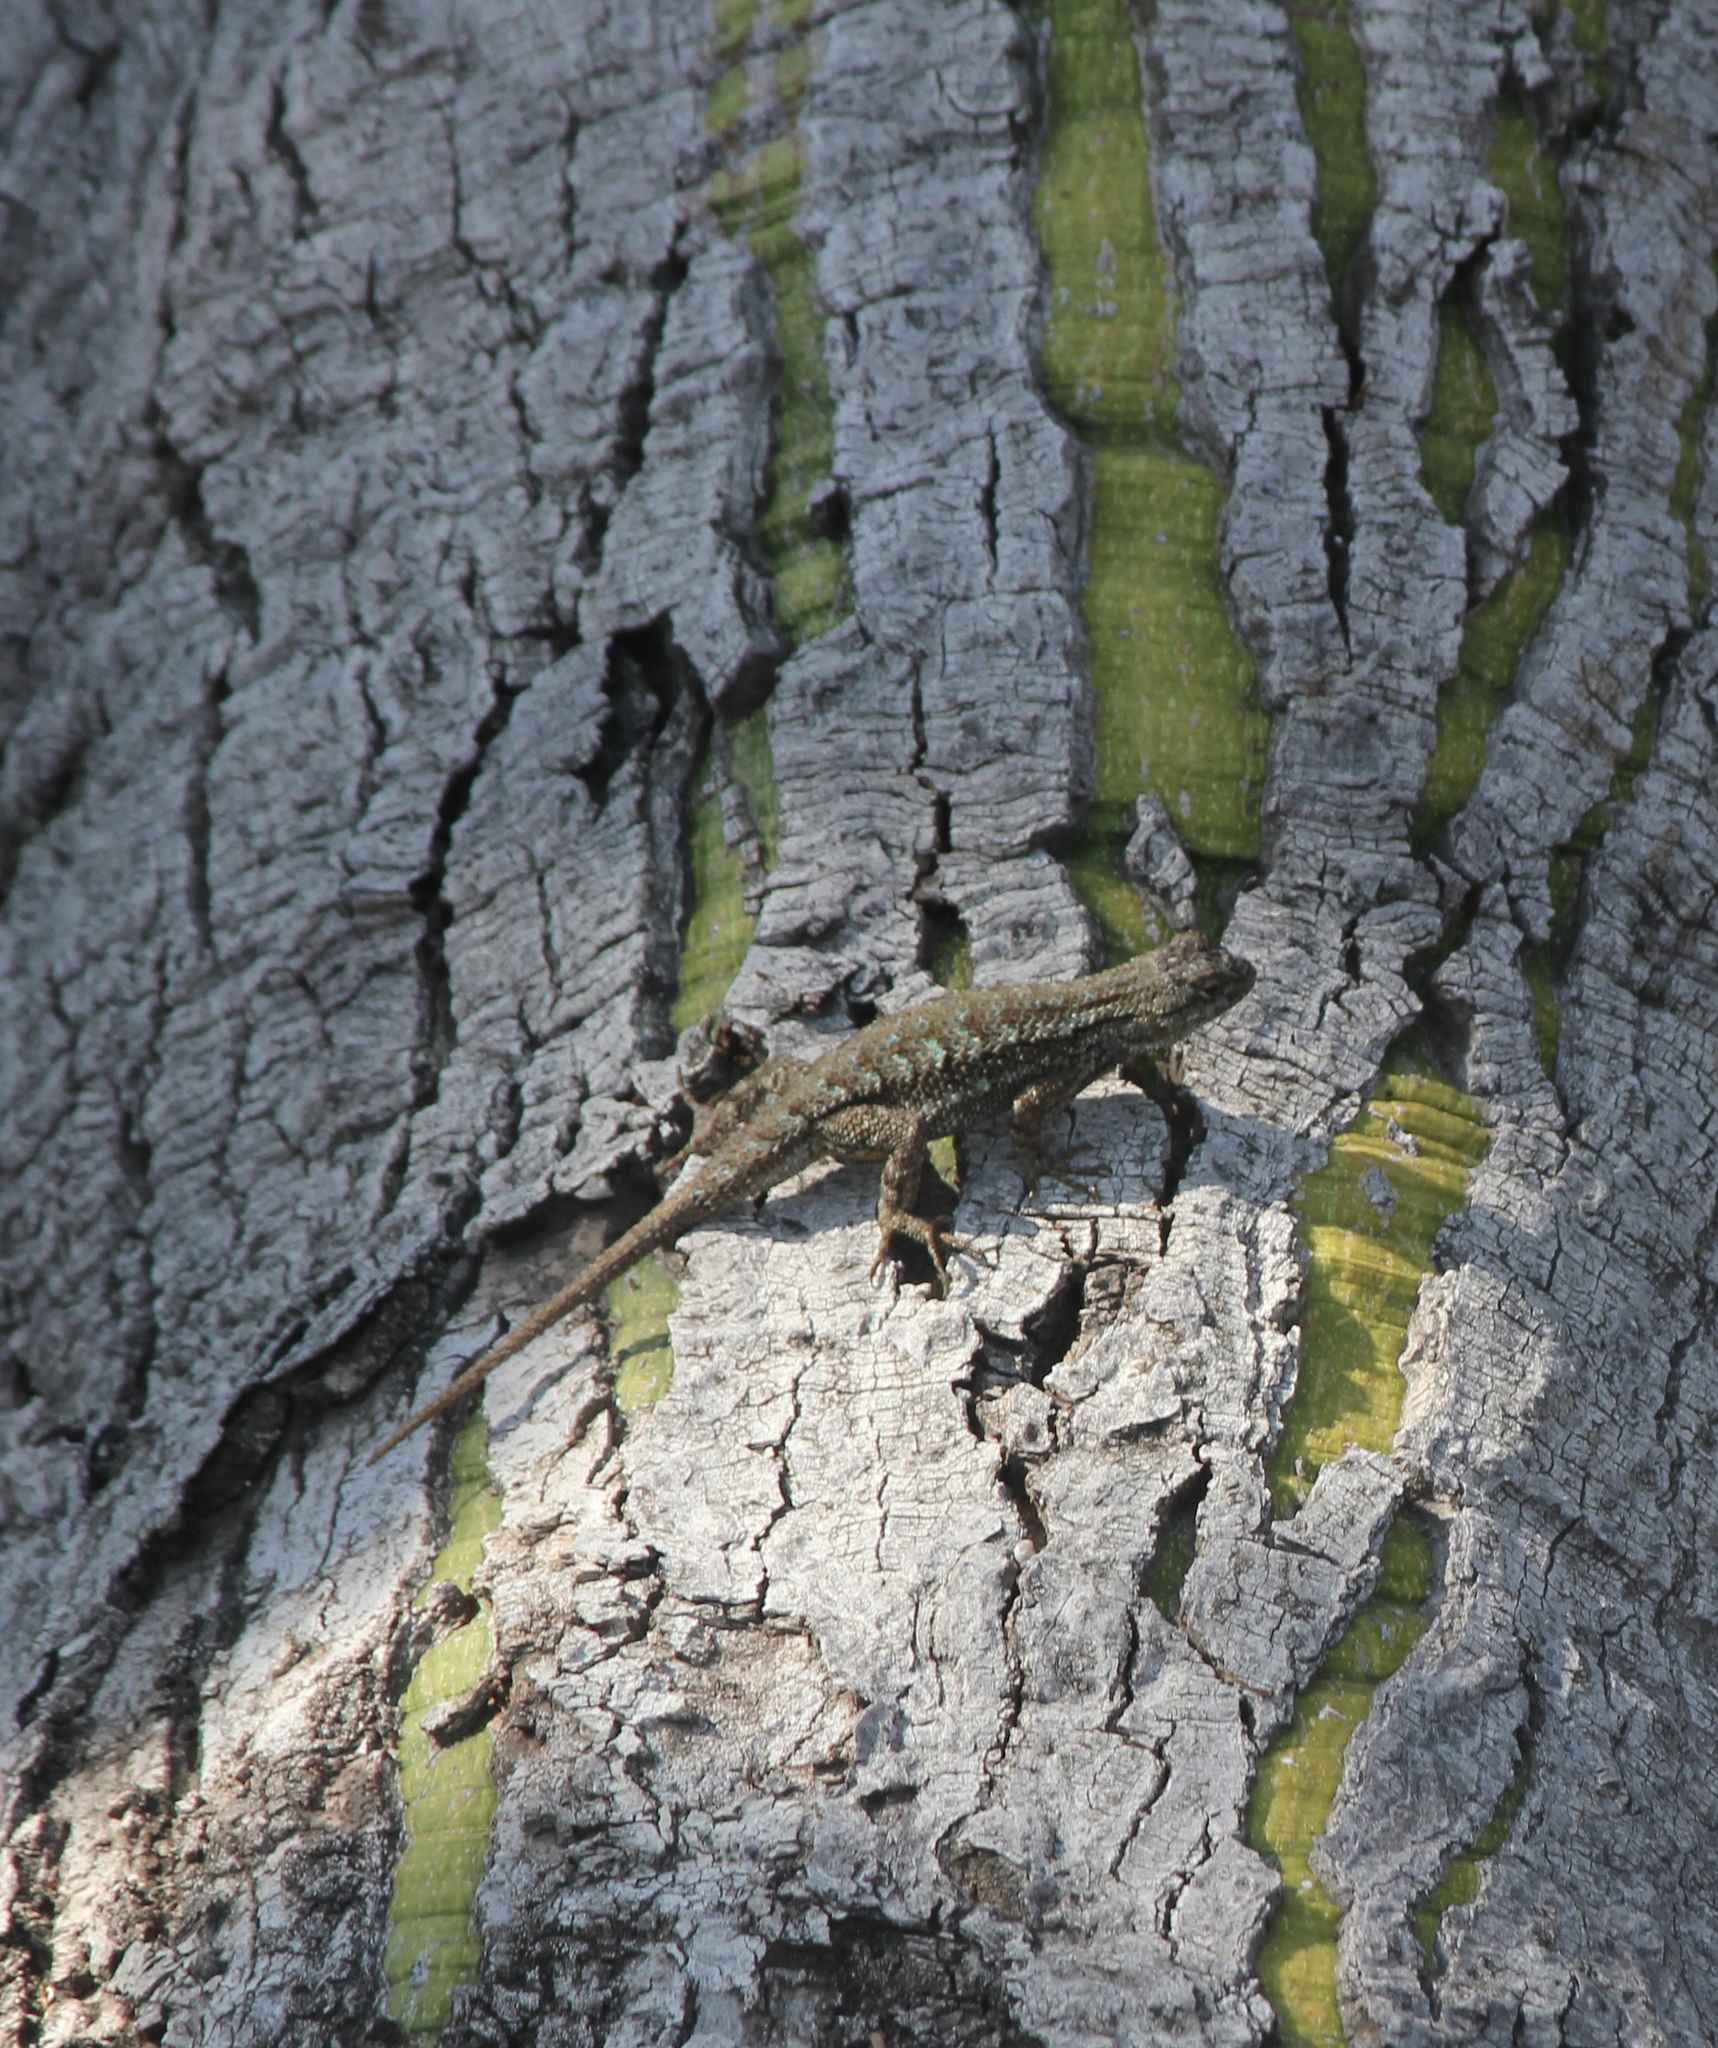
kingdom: Animalia
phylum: Chordata
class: Squamata
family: Phrynosomatidae
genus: Sceloporus
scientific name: Sceloporus occidentalis
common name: Western fence lizard
